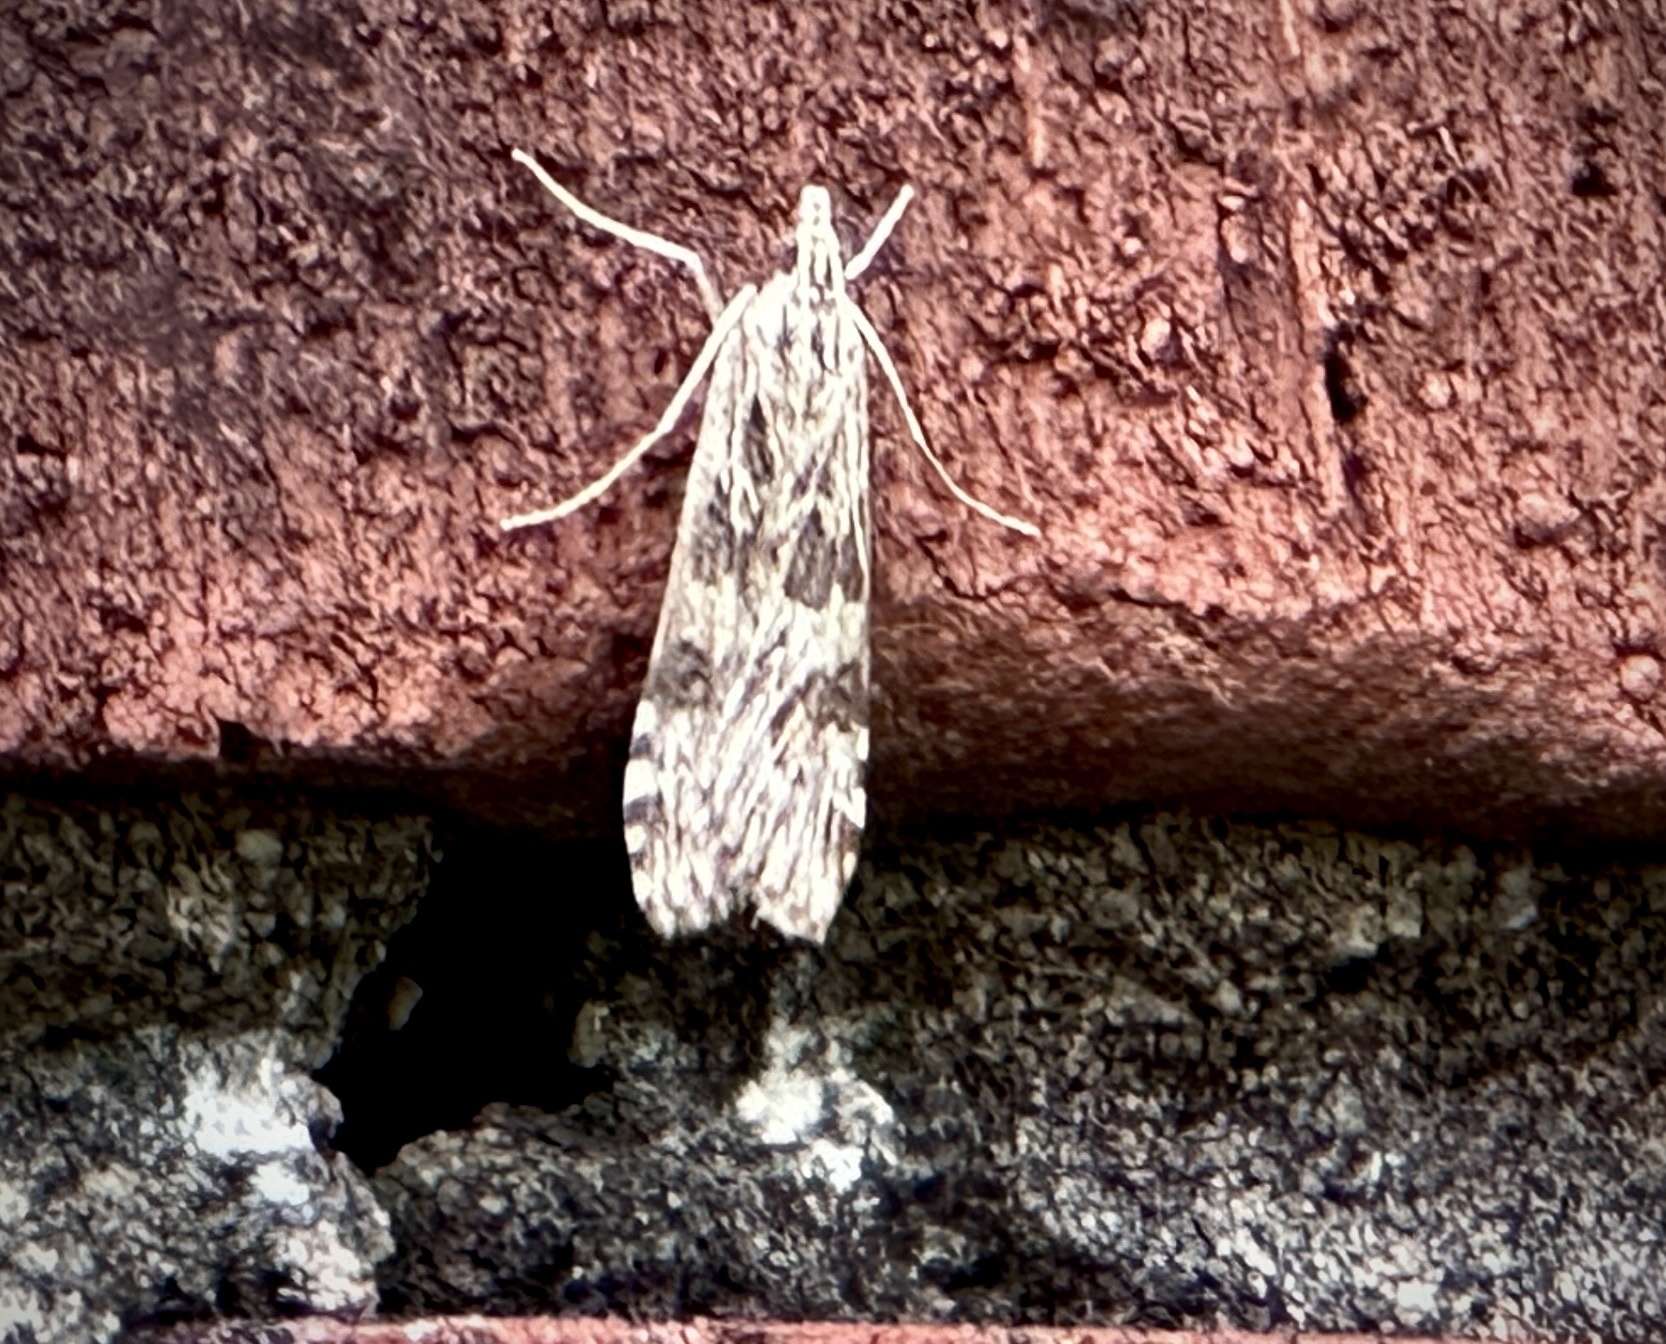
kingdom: Animalia
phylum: Arthropoda
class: Insecta
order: Lepidoptera
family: Crambidae
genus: Nomophila
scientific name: Nomophila nearctica
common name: American rush veneer
